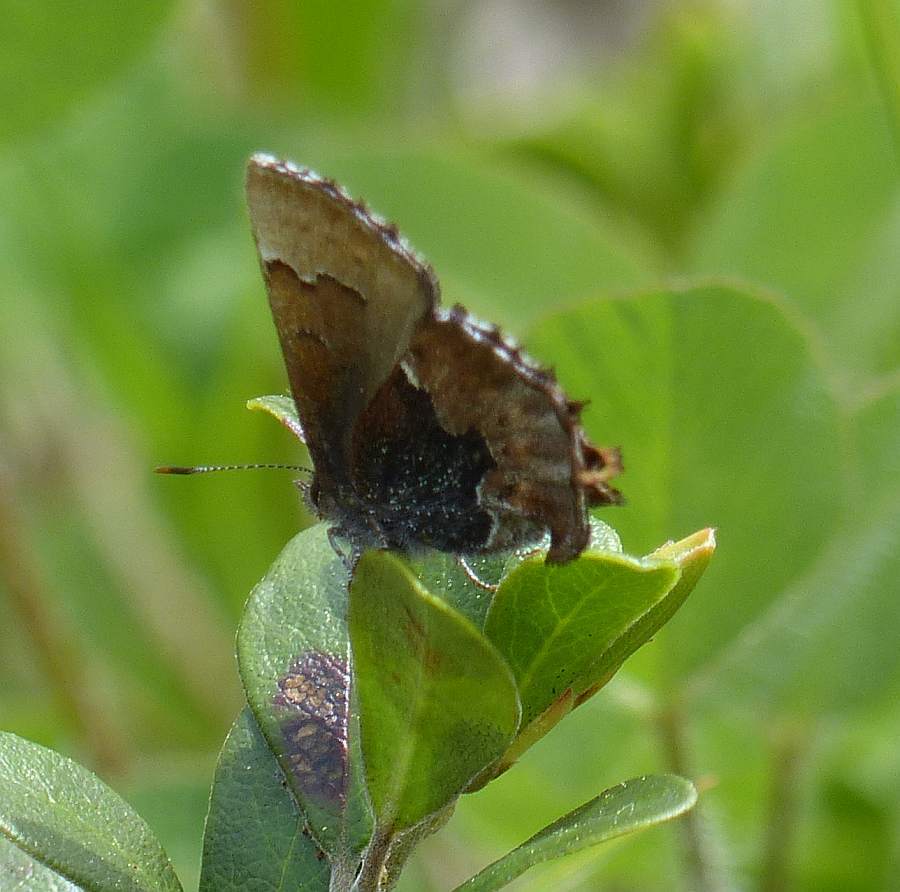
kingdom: Animalia
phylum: Arthropoda
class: Insecta
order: Lepidoptera
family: Lycaenidae
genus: Incisalia
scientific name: Incisalia henrici
